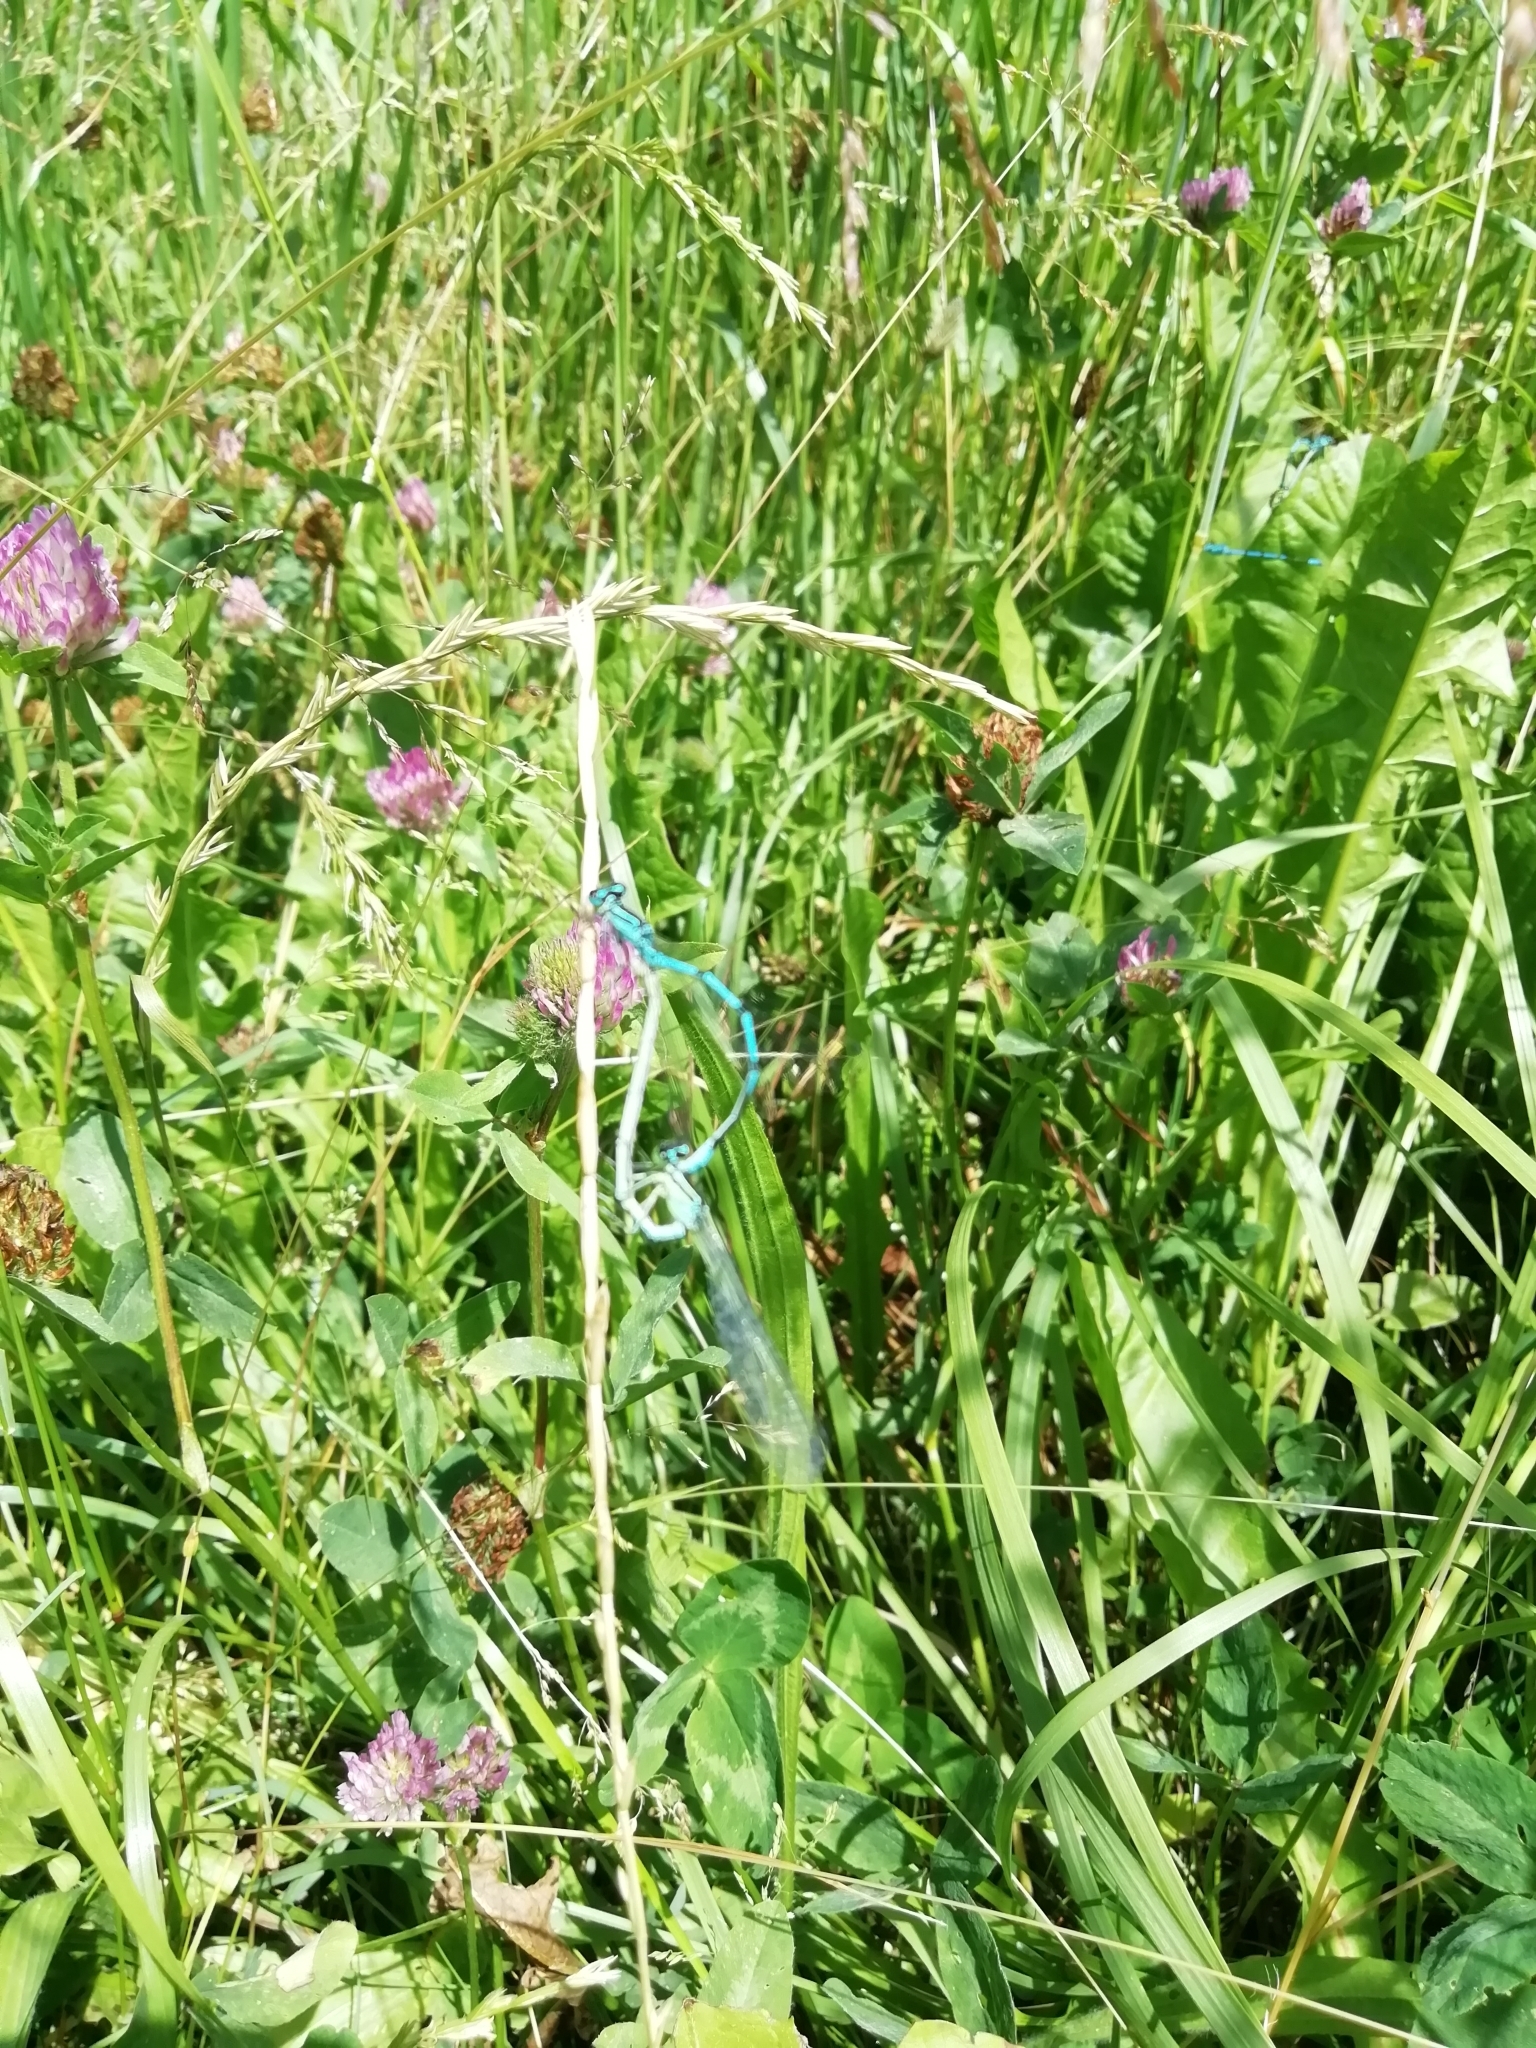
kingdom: Animalia
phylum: Arthropoda
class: Insecta
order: Odonata
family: Coenagrionidae
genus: Coenagrion
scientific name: Coenagrion puella
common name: Azure damselfly
